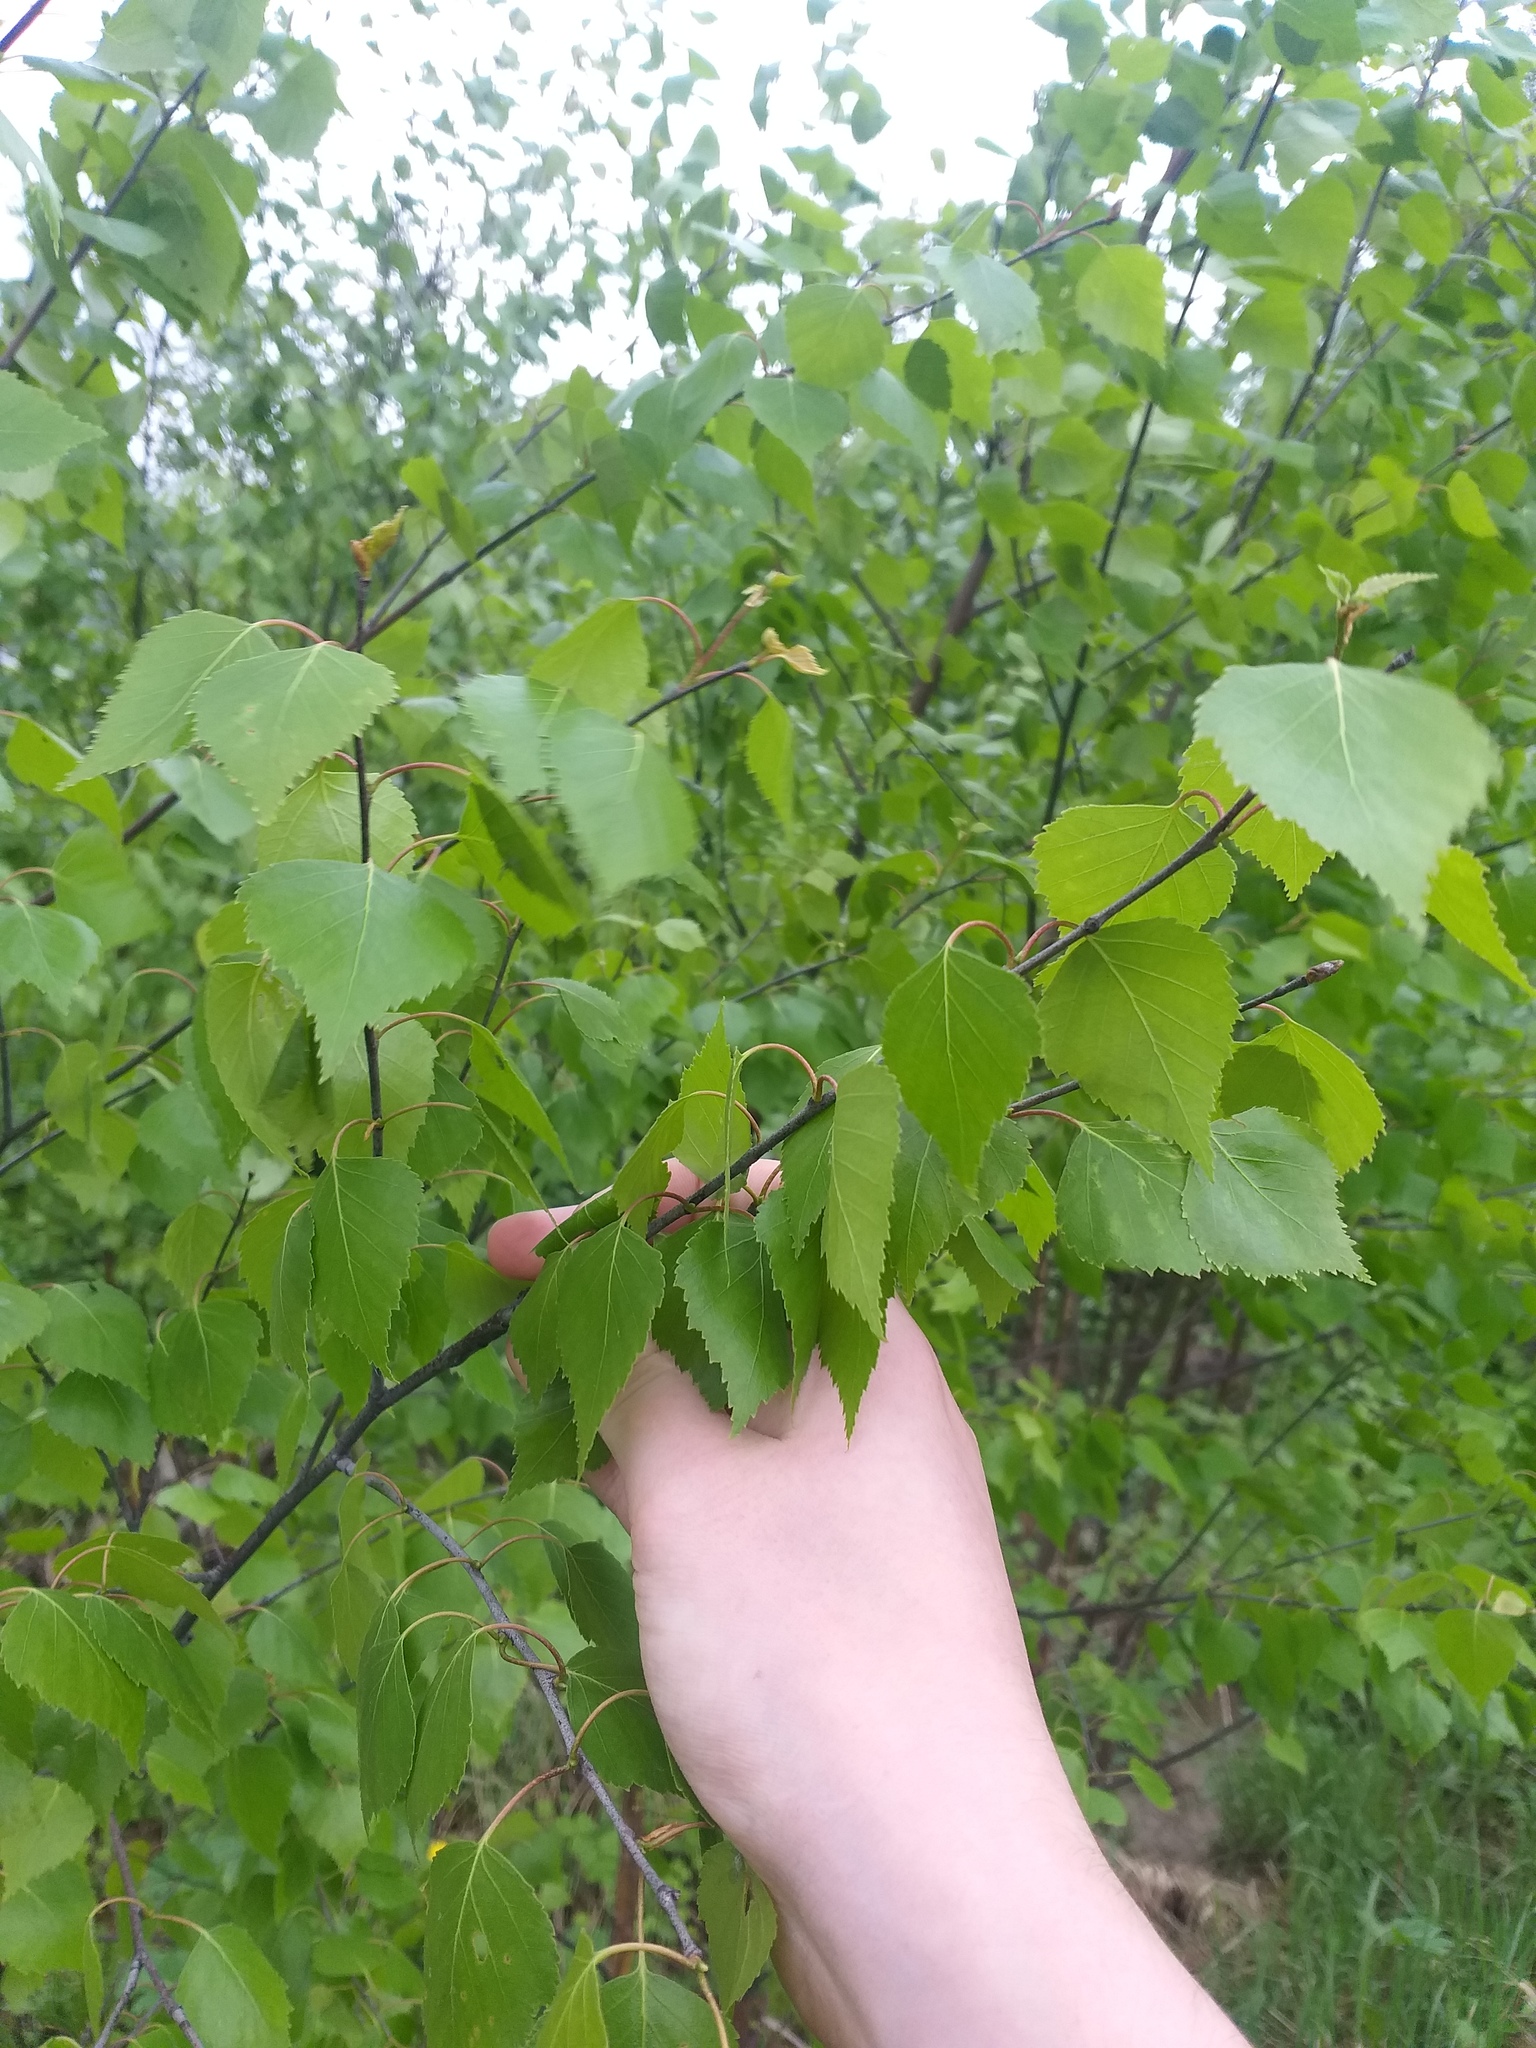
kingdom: Plantae
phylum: Tracheophyta
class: Magnoliopsida
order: Fagales
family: Betulaceae
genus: Betula
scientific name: Betula pendula
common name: Silver birch
